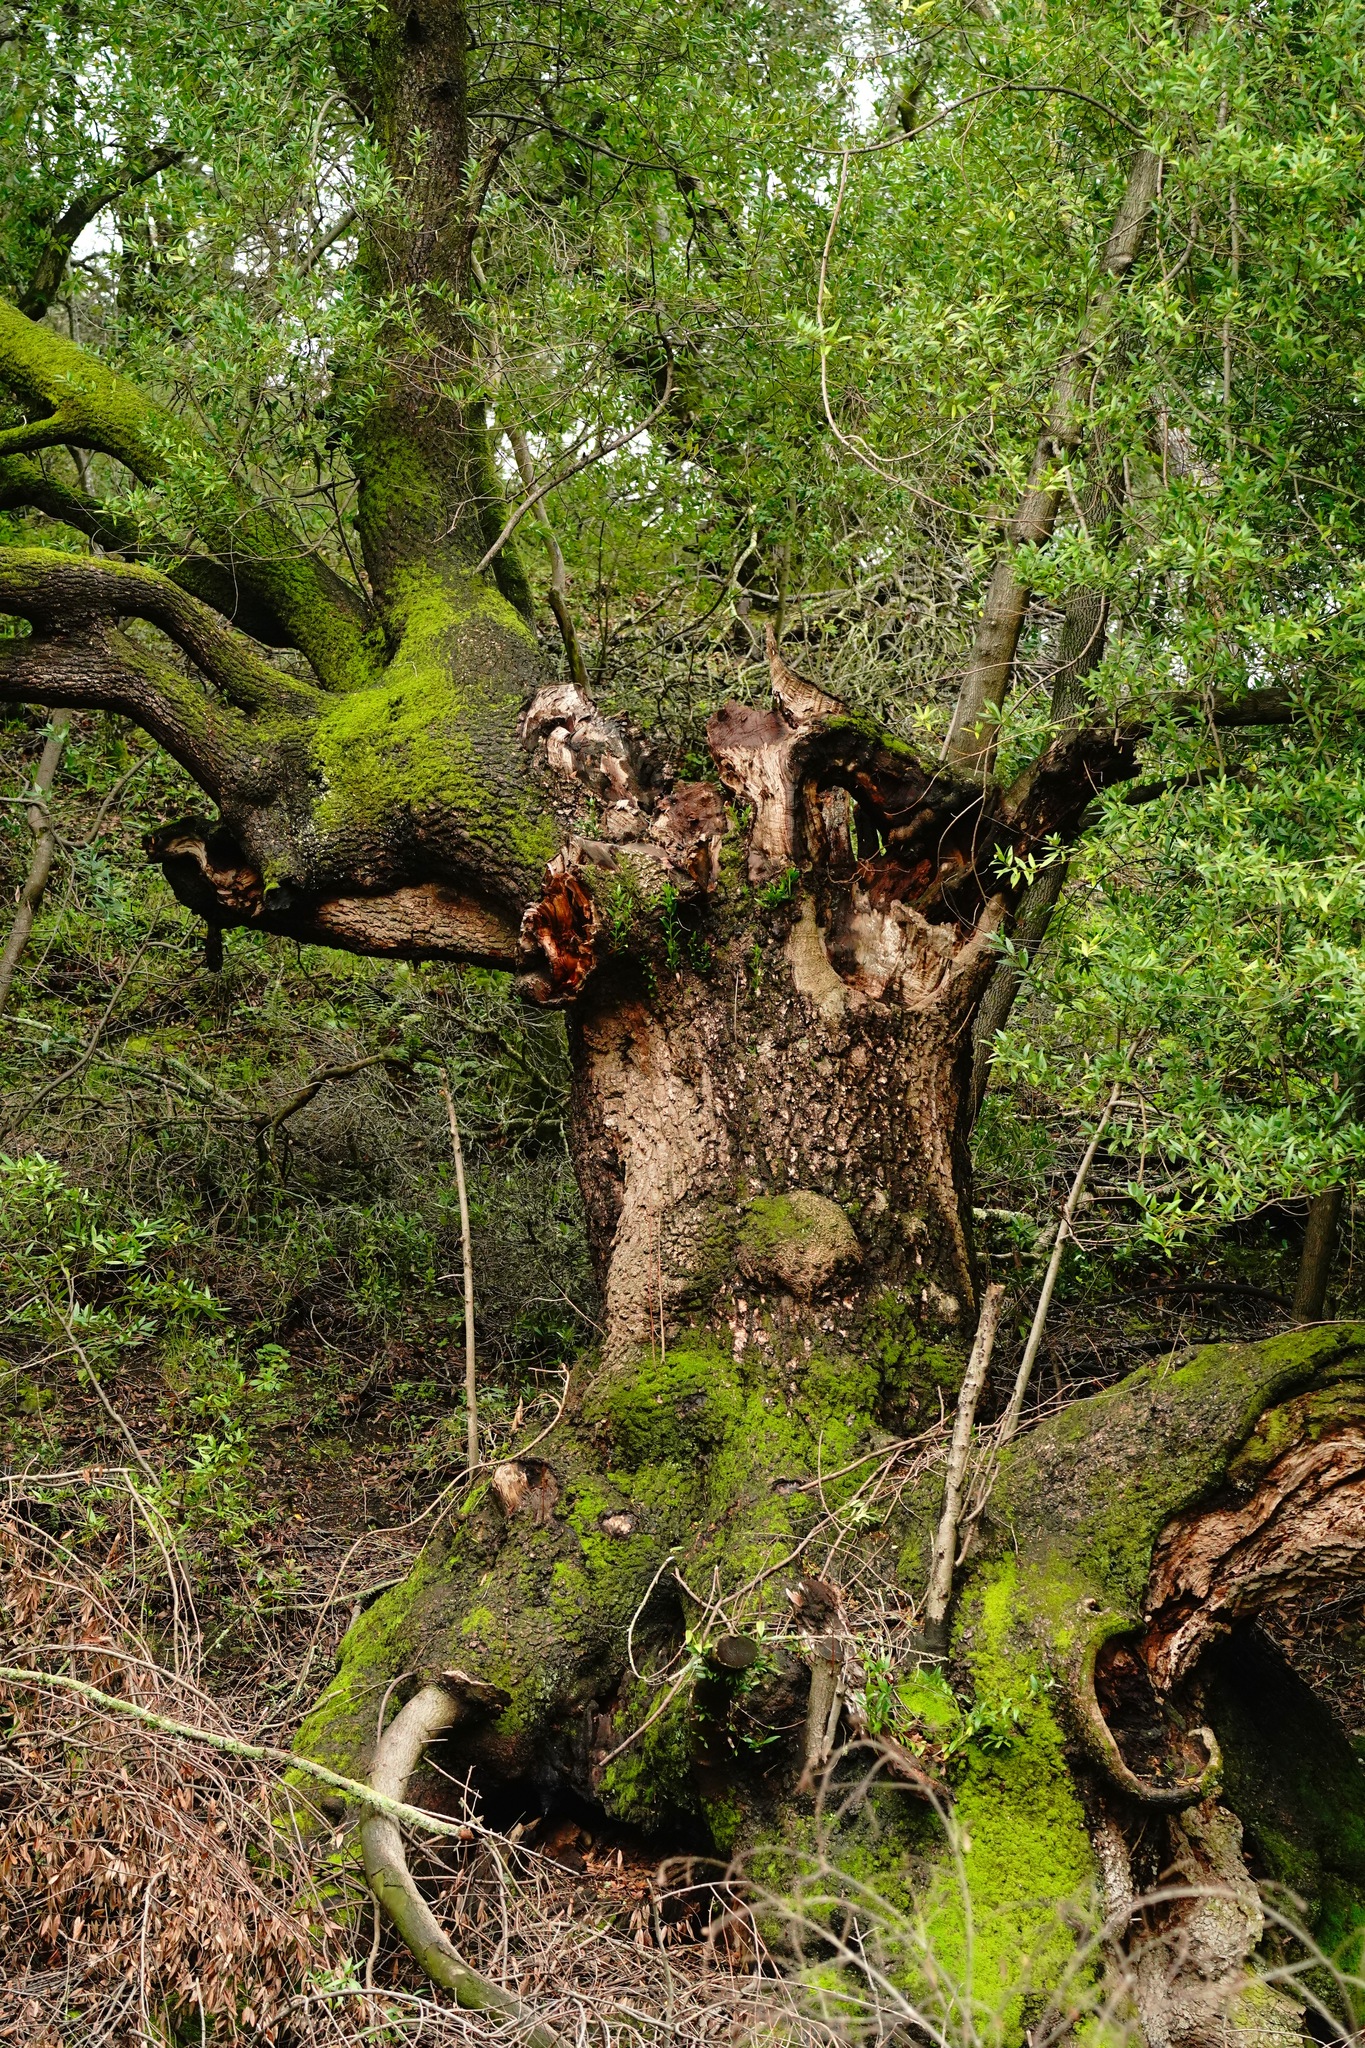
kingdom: Plantae
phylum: Tracheophyta
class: Magnoliopsida
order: Laurales
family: Lauraceae
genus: Umbellularia
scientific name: Umbellularia californica
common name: California bay
